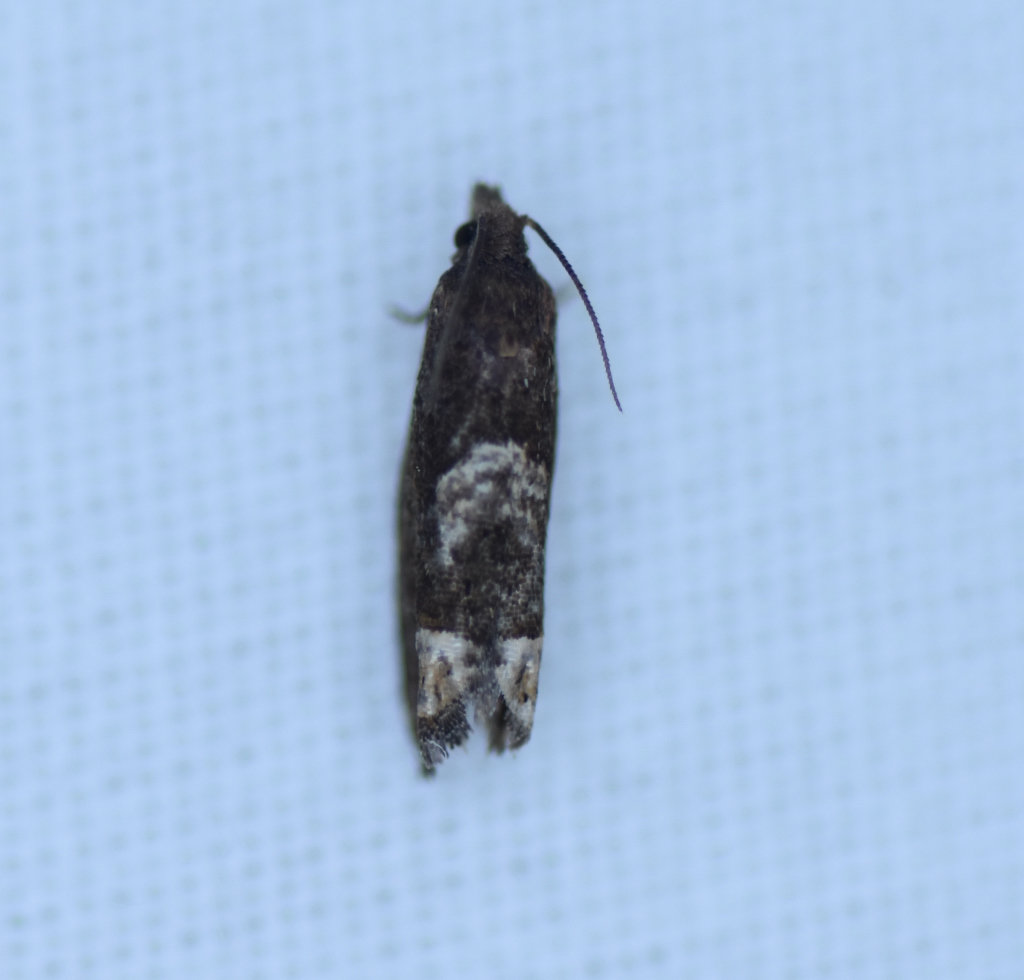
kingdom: Animalia
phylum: Arthropoda
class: Insecta
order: Lepidoptera
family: Tortricidae
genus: Eucosma
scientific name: Eucosma parmatana
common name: Aster eucosma moth
